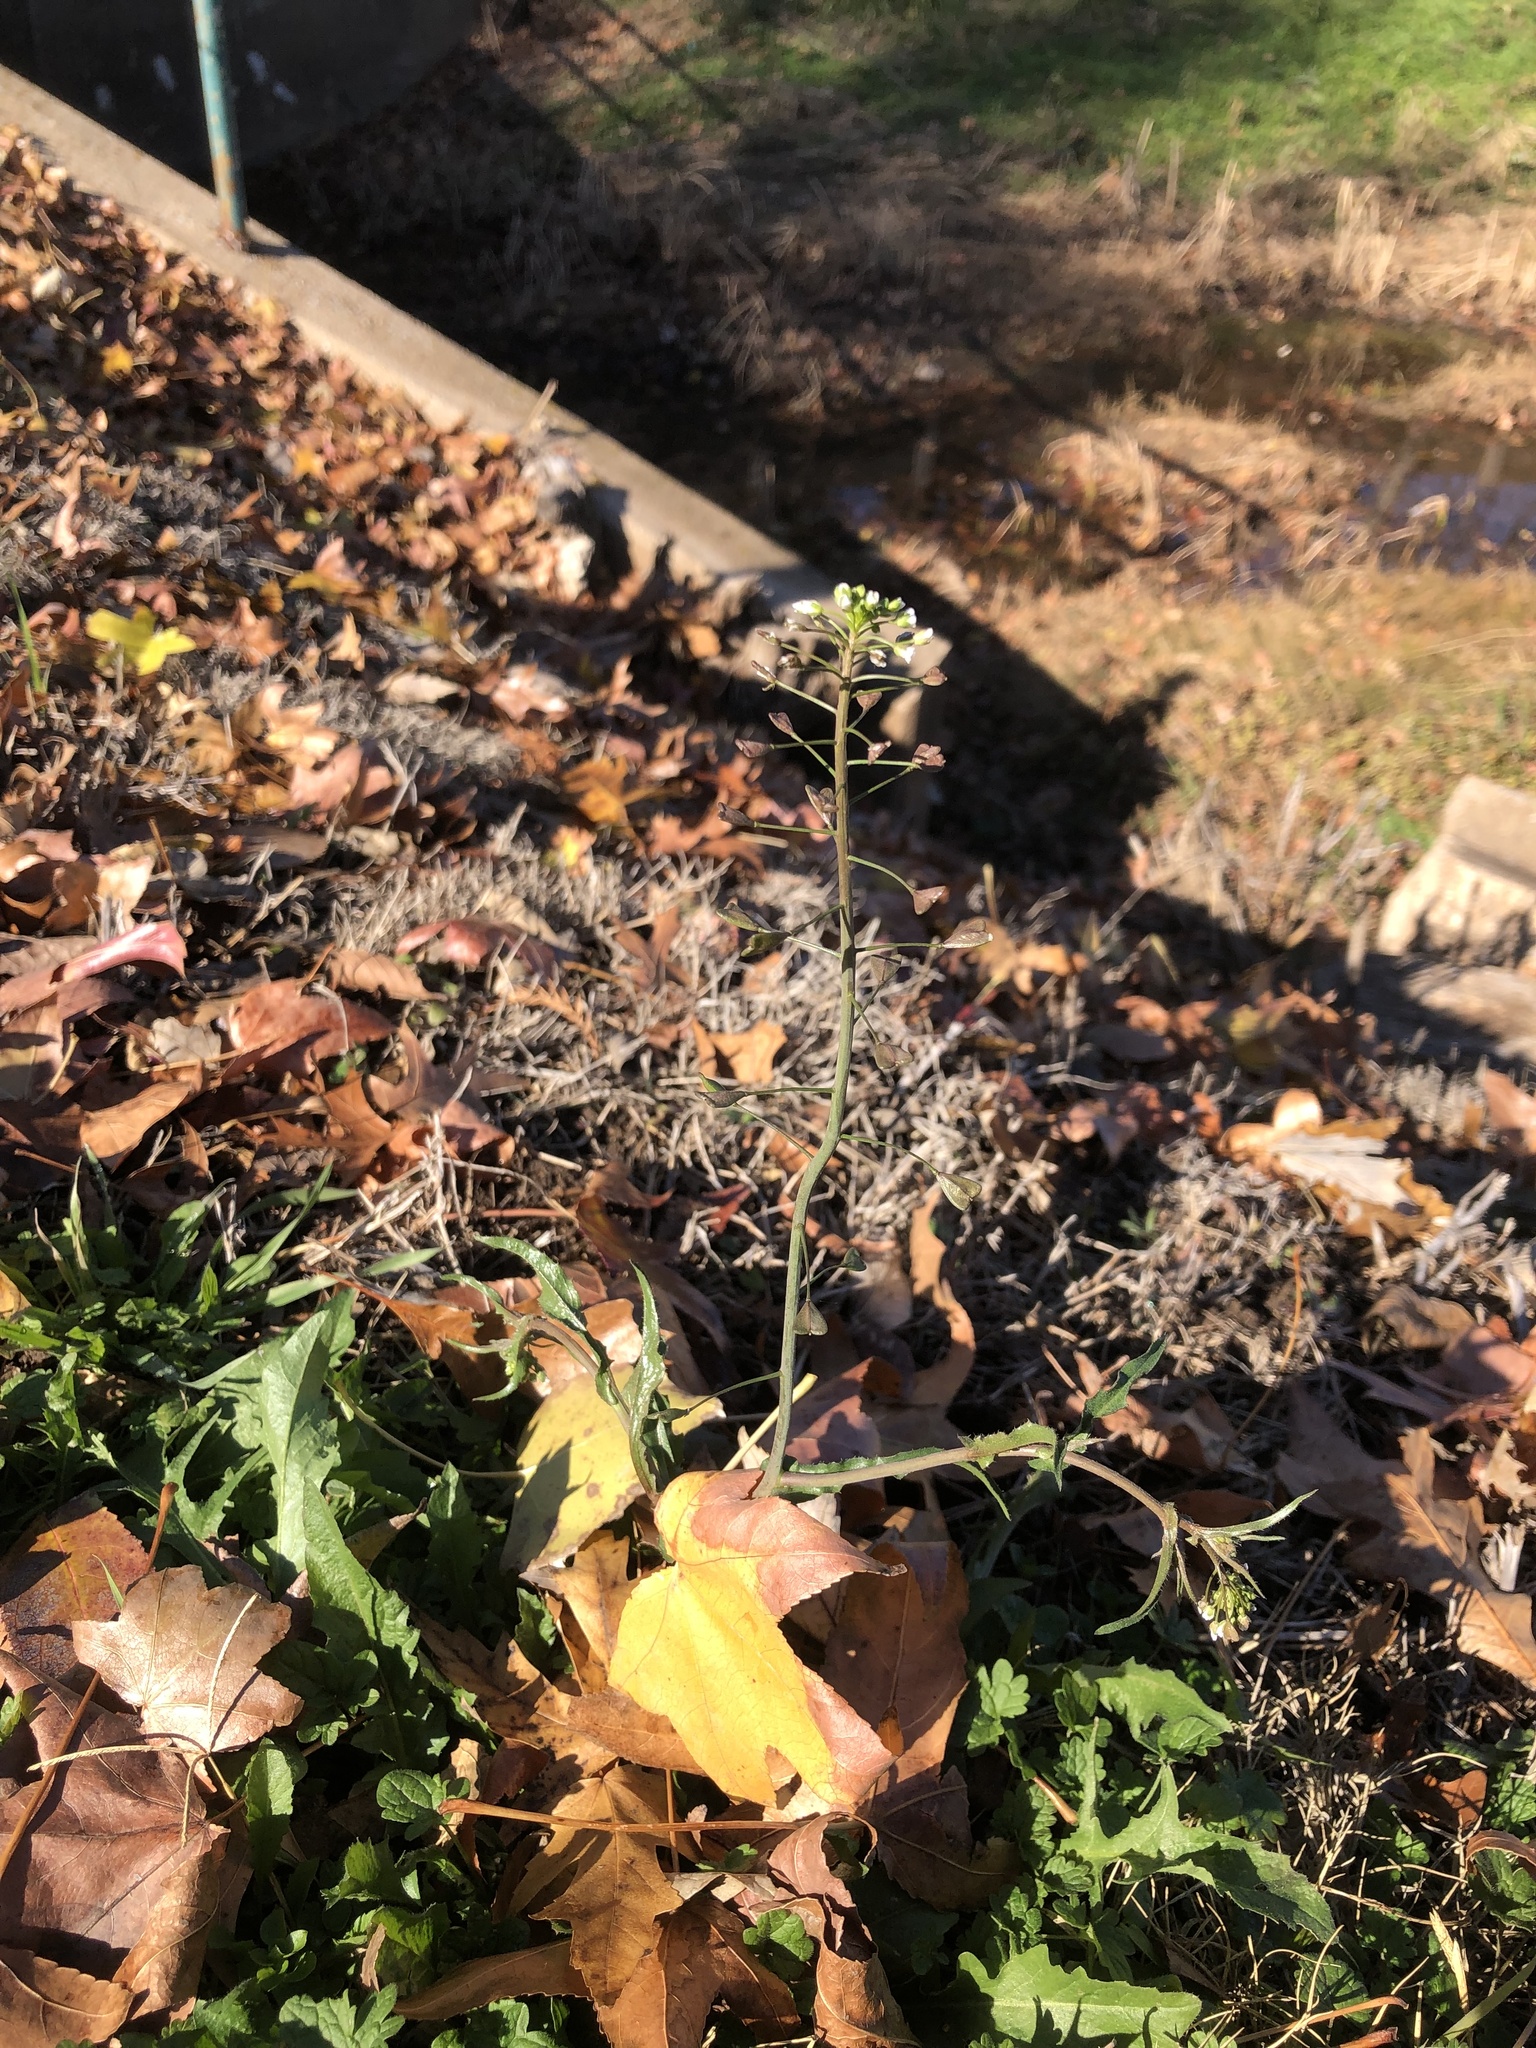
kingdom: Plantae
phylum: Tracheophyta
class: Magnoliopsida
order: Brassicales
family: Brassicaceae
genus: Capsella
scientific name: Capsella bursa-pastoris
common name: Shepherd's purse
